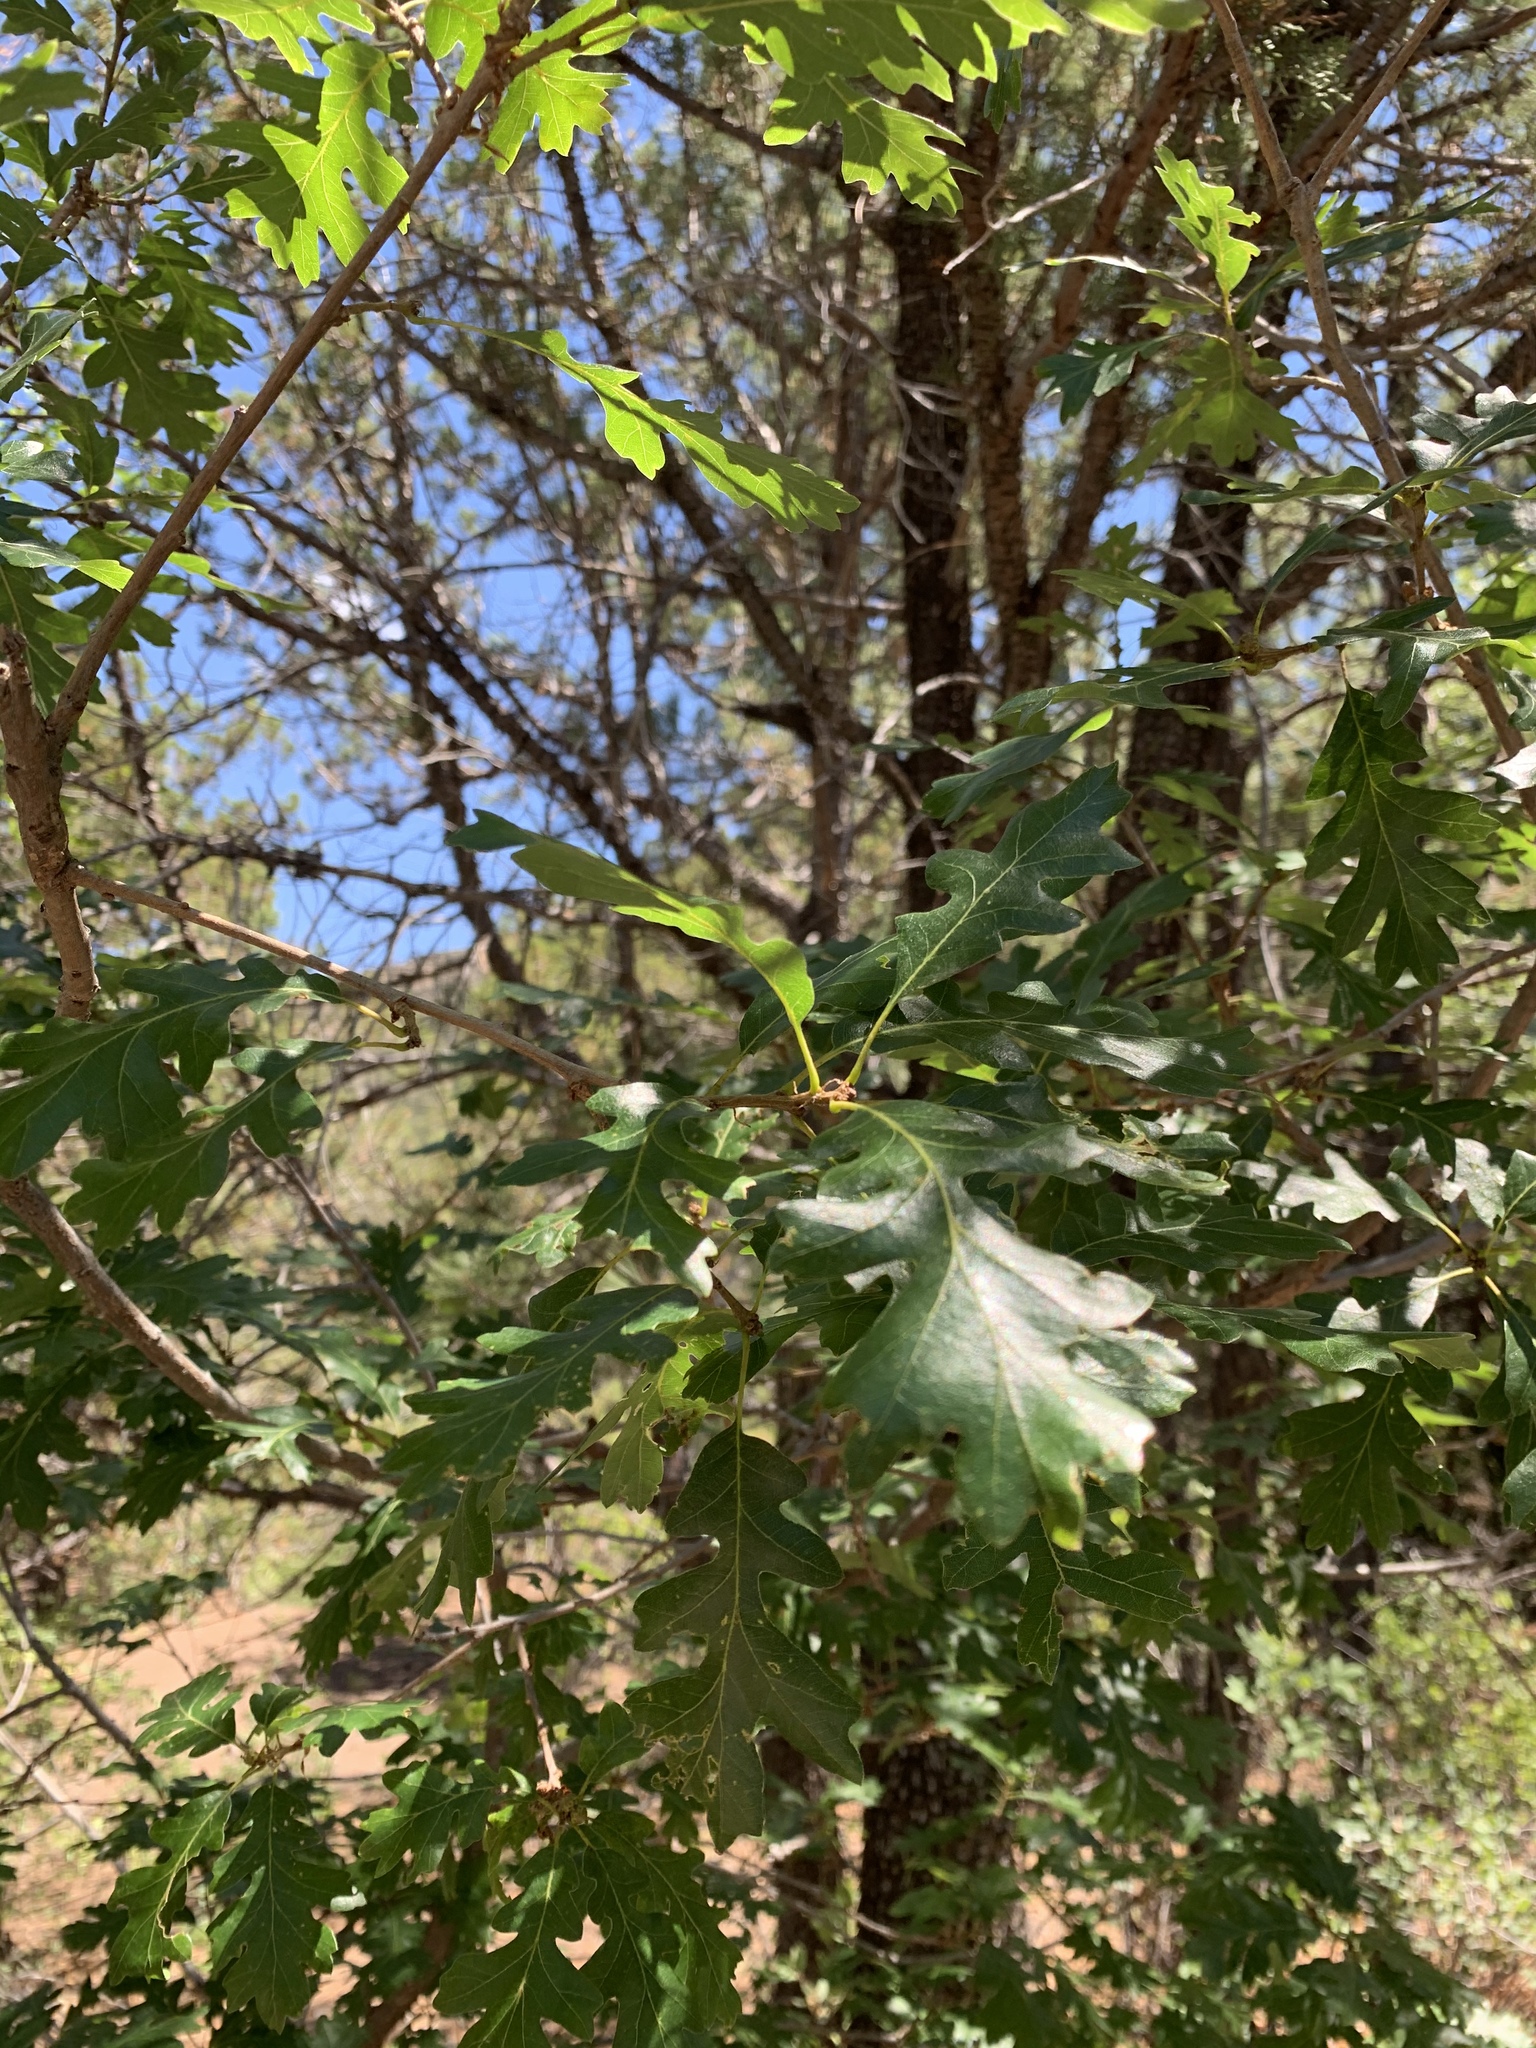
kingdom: Plantae
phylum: Tracheophyta
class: Magnoliopsida
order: Fagales
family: Fagaceae
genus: Quercus
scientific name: Quercus gambelii
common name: Gambel oak
